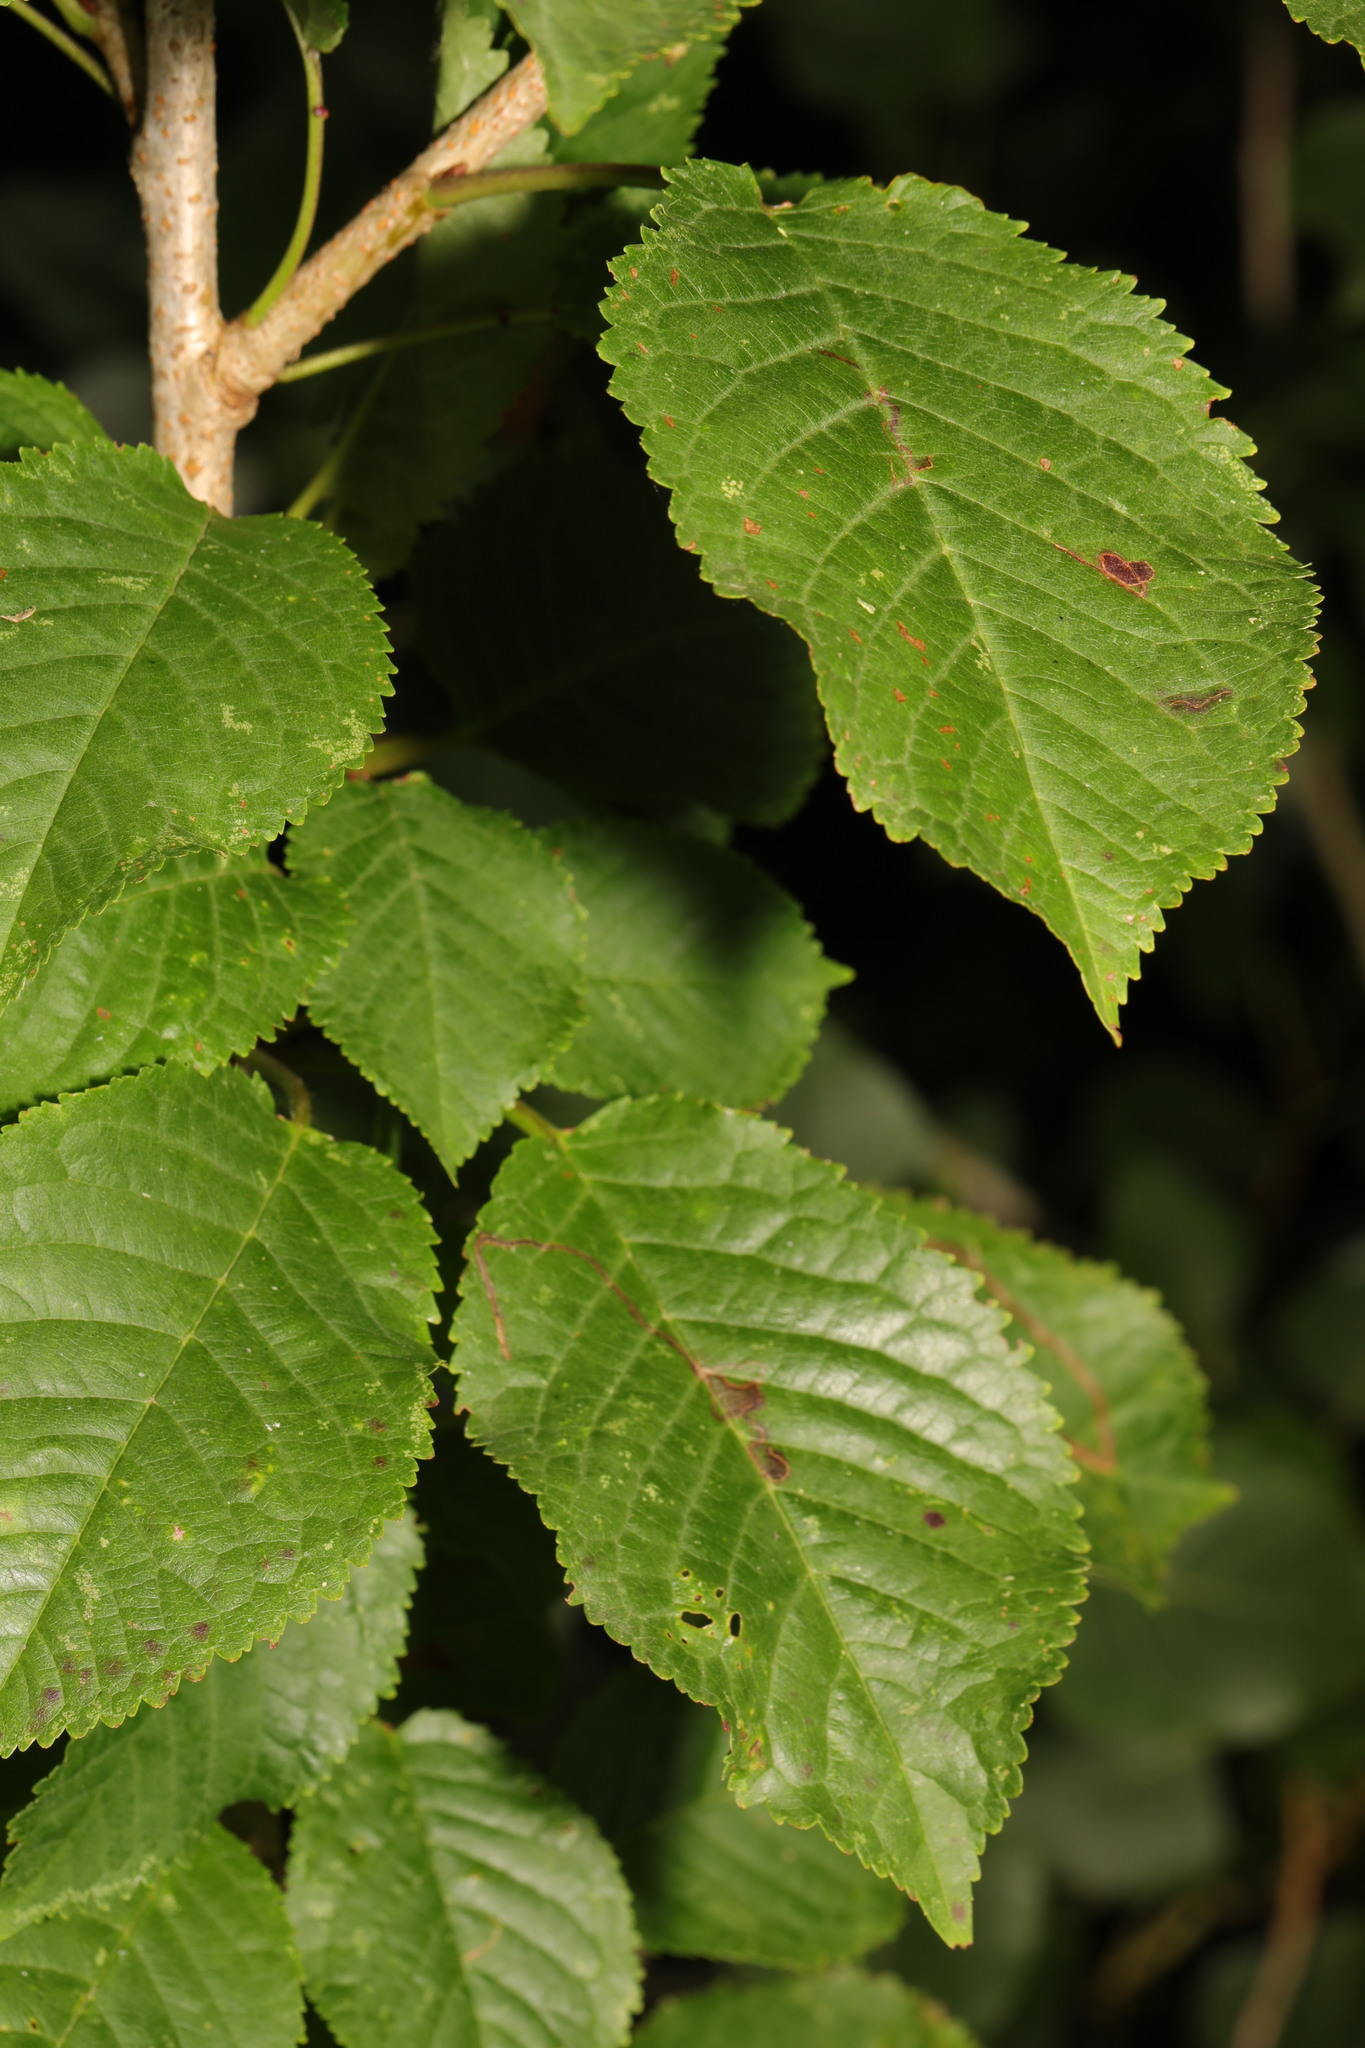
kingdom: Plantae
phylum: Tracheophyta
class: Magnoliopsida
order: Rosales
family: Rosaceae
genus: Prunus
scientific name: Prunus avium
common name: Sweet cherry
